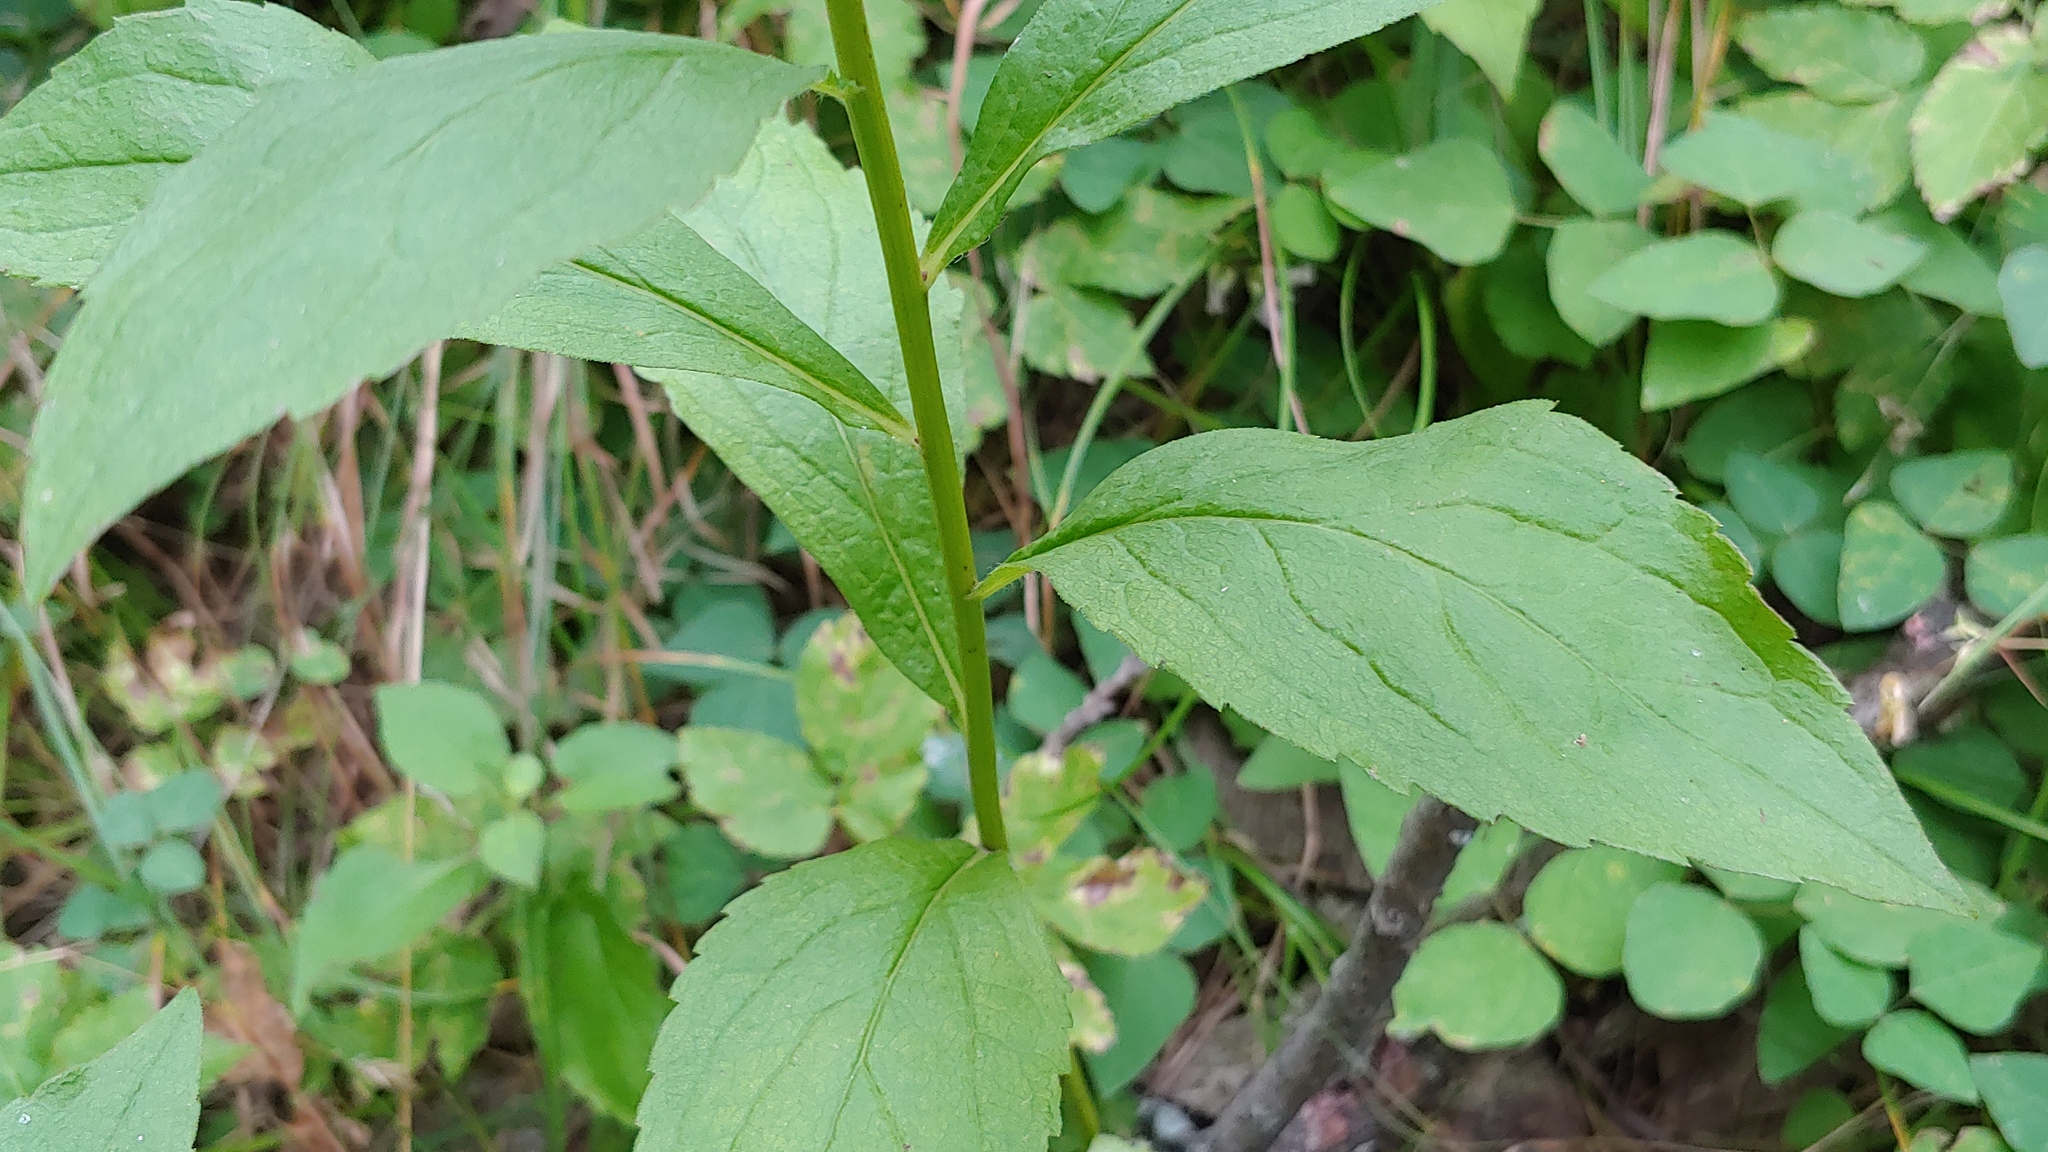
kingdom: Plantae
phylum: Tracheophyta
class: Magnoliopsida
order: Asterales
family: Asteraceae
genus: Solidago
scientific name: Solidago ulmifolia
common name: Elm-leaf goldenrod
